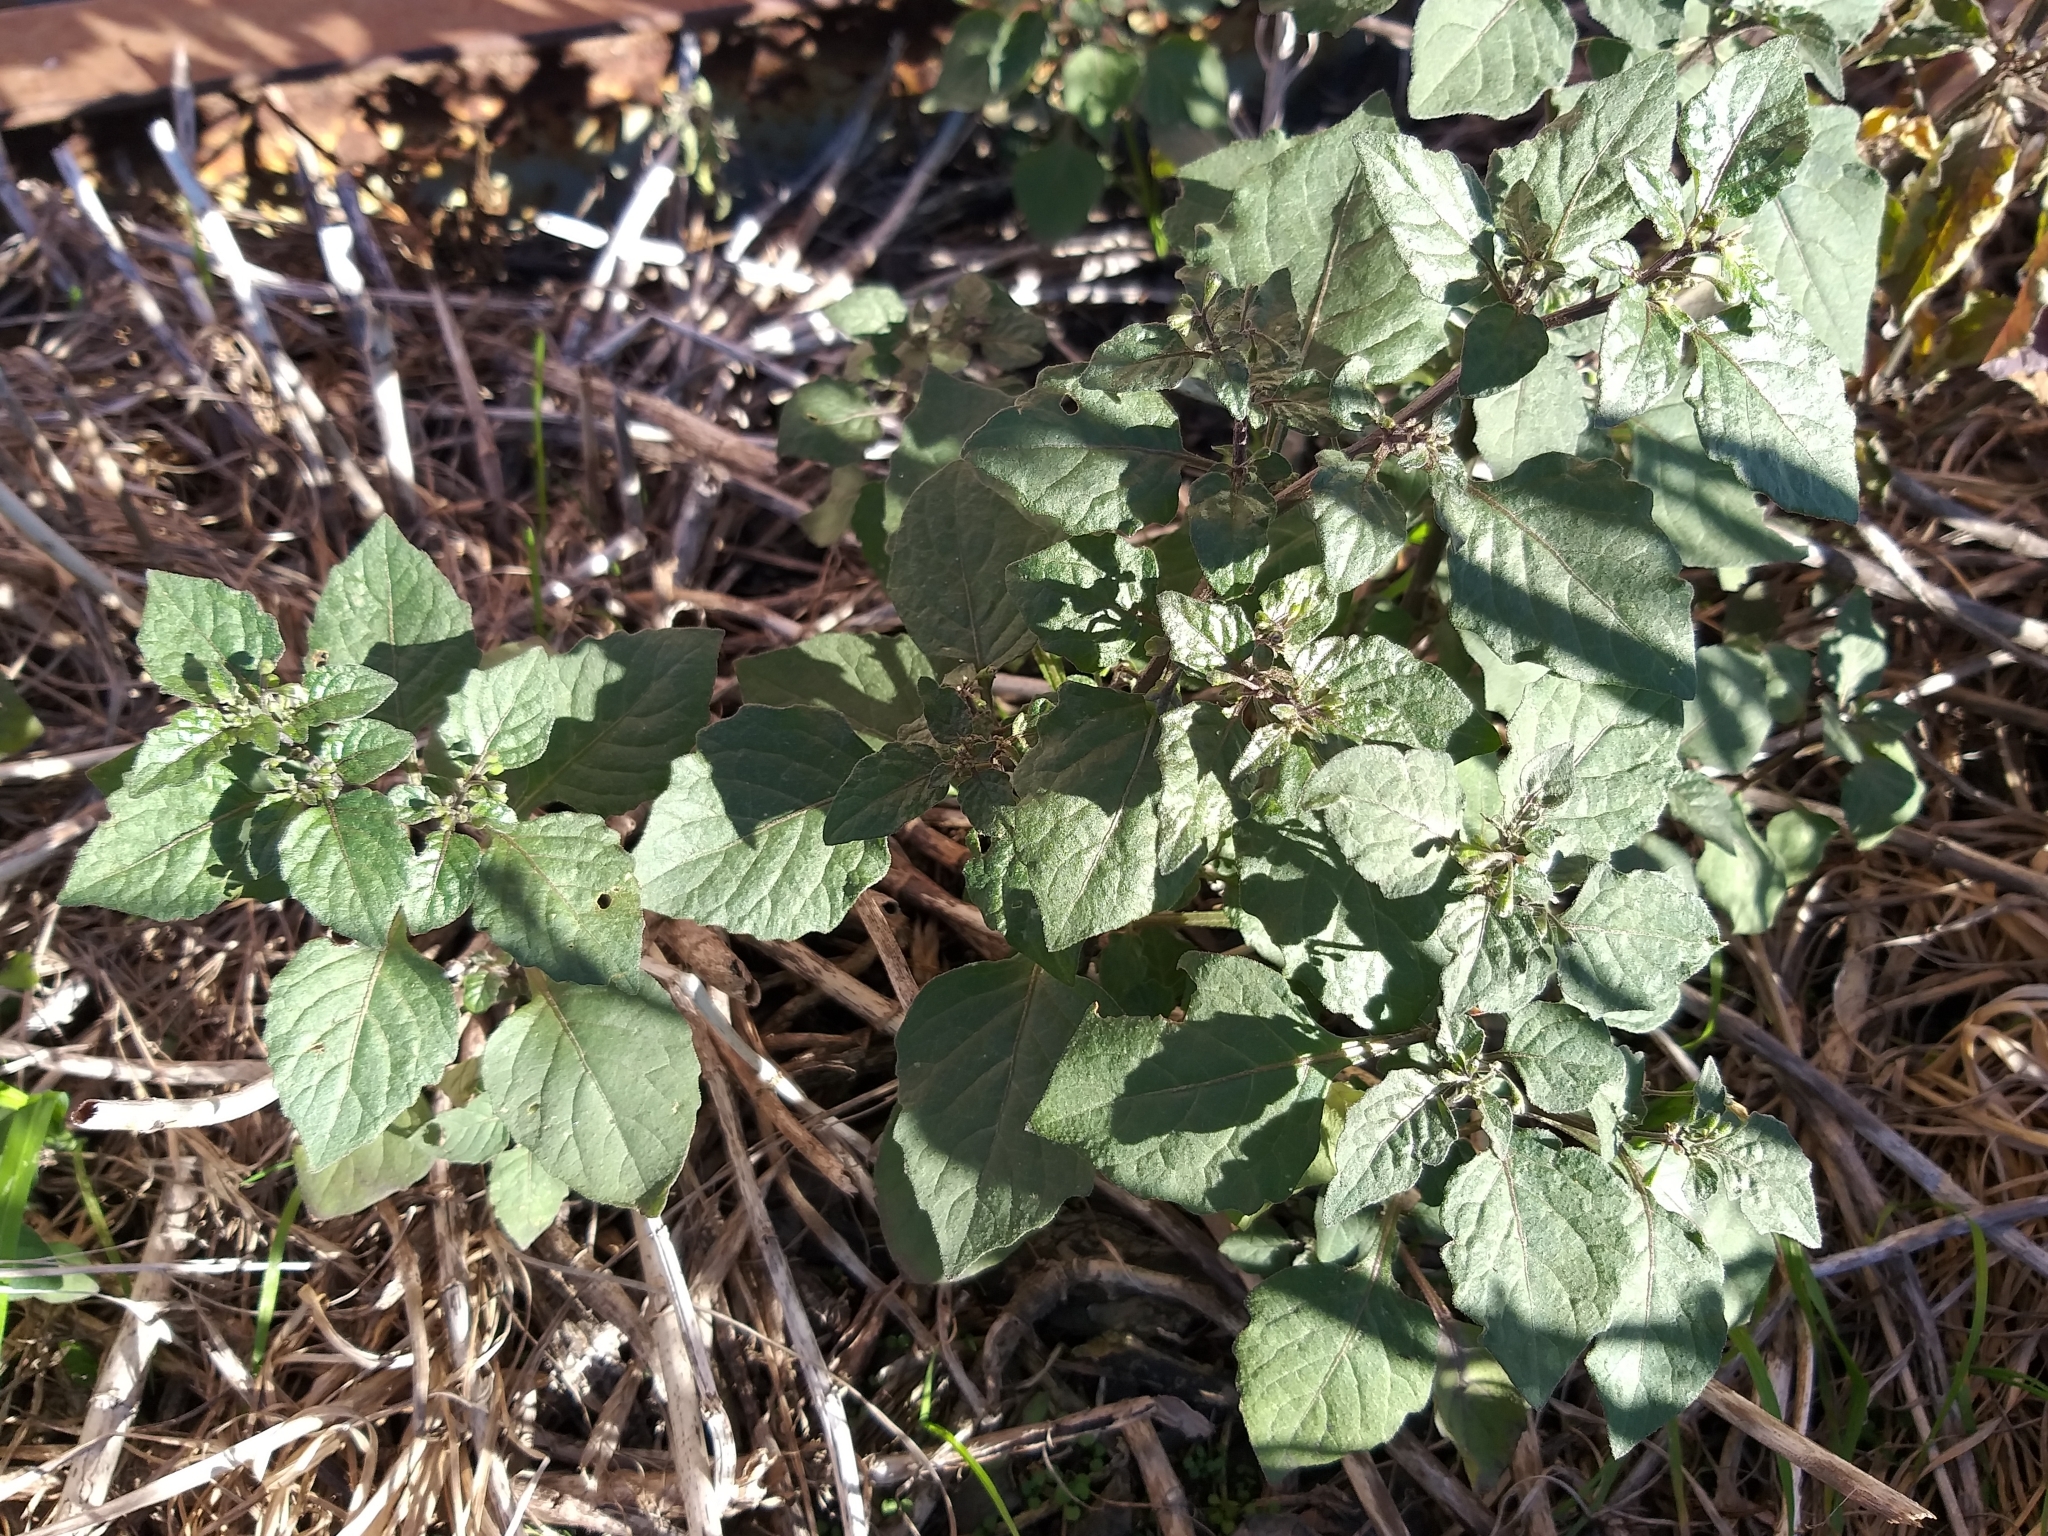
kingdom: Plantae
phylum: Tracheophyta
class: Magnoliopsida
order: Solanales
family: Solanaceae
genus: Solanum
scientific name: Solanum nigrum
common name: Black nightshade
